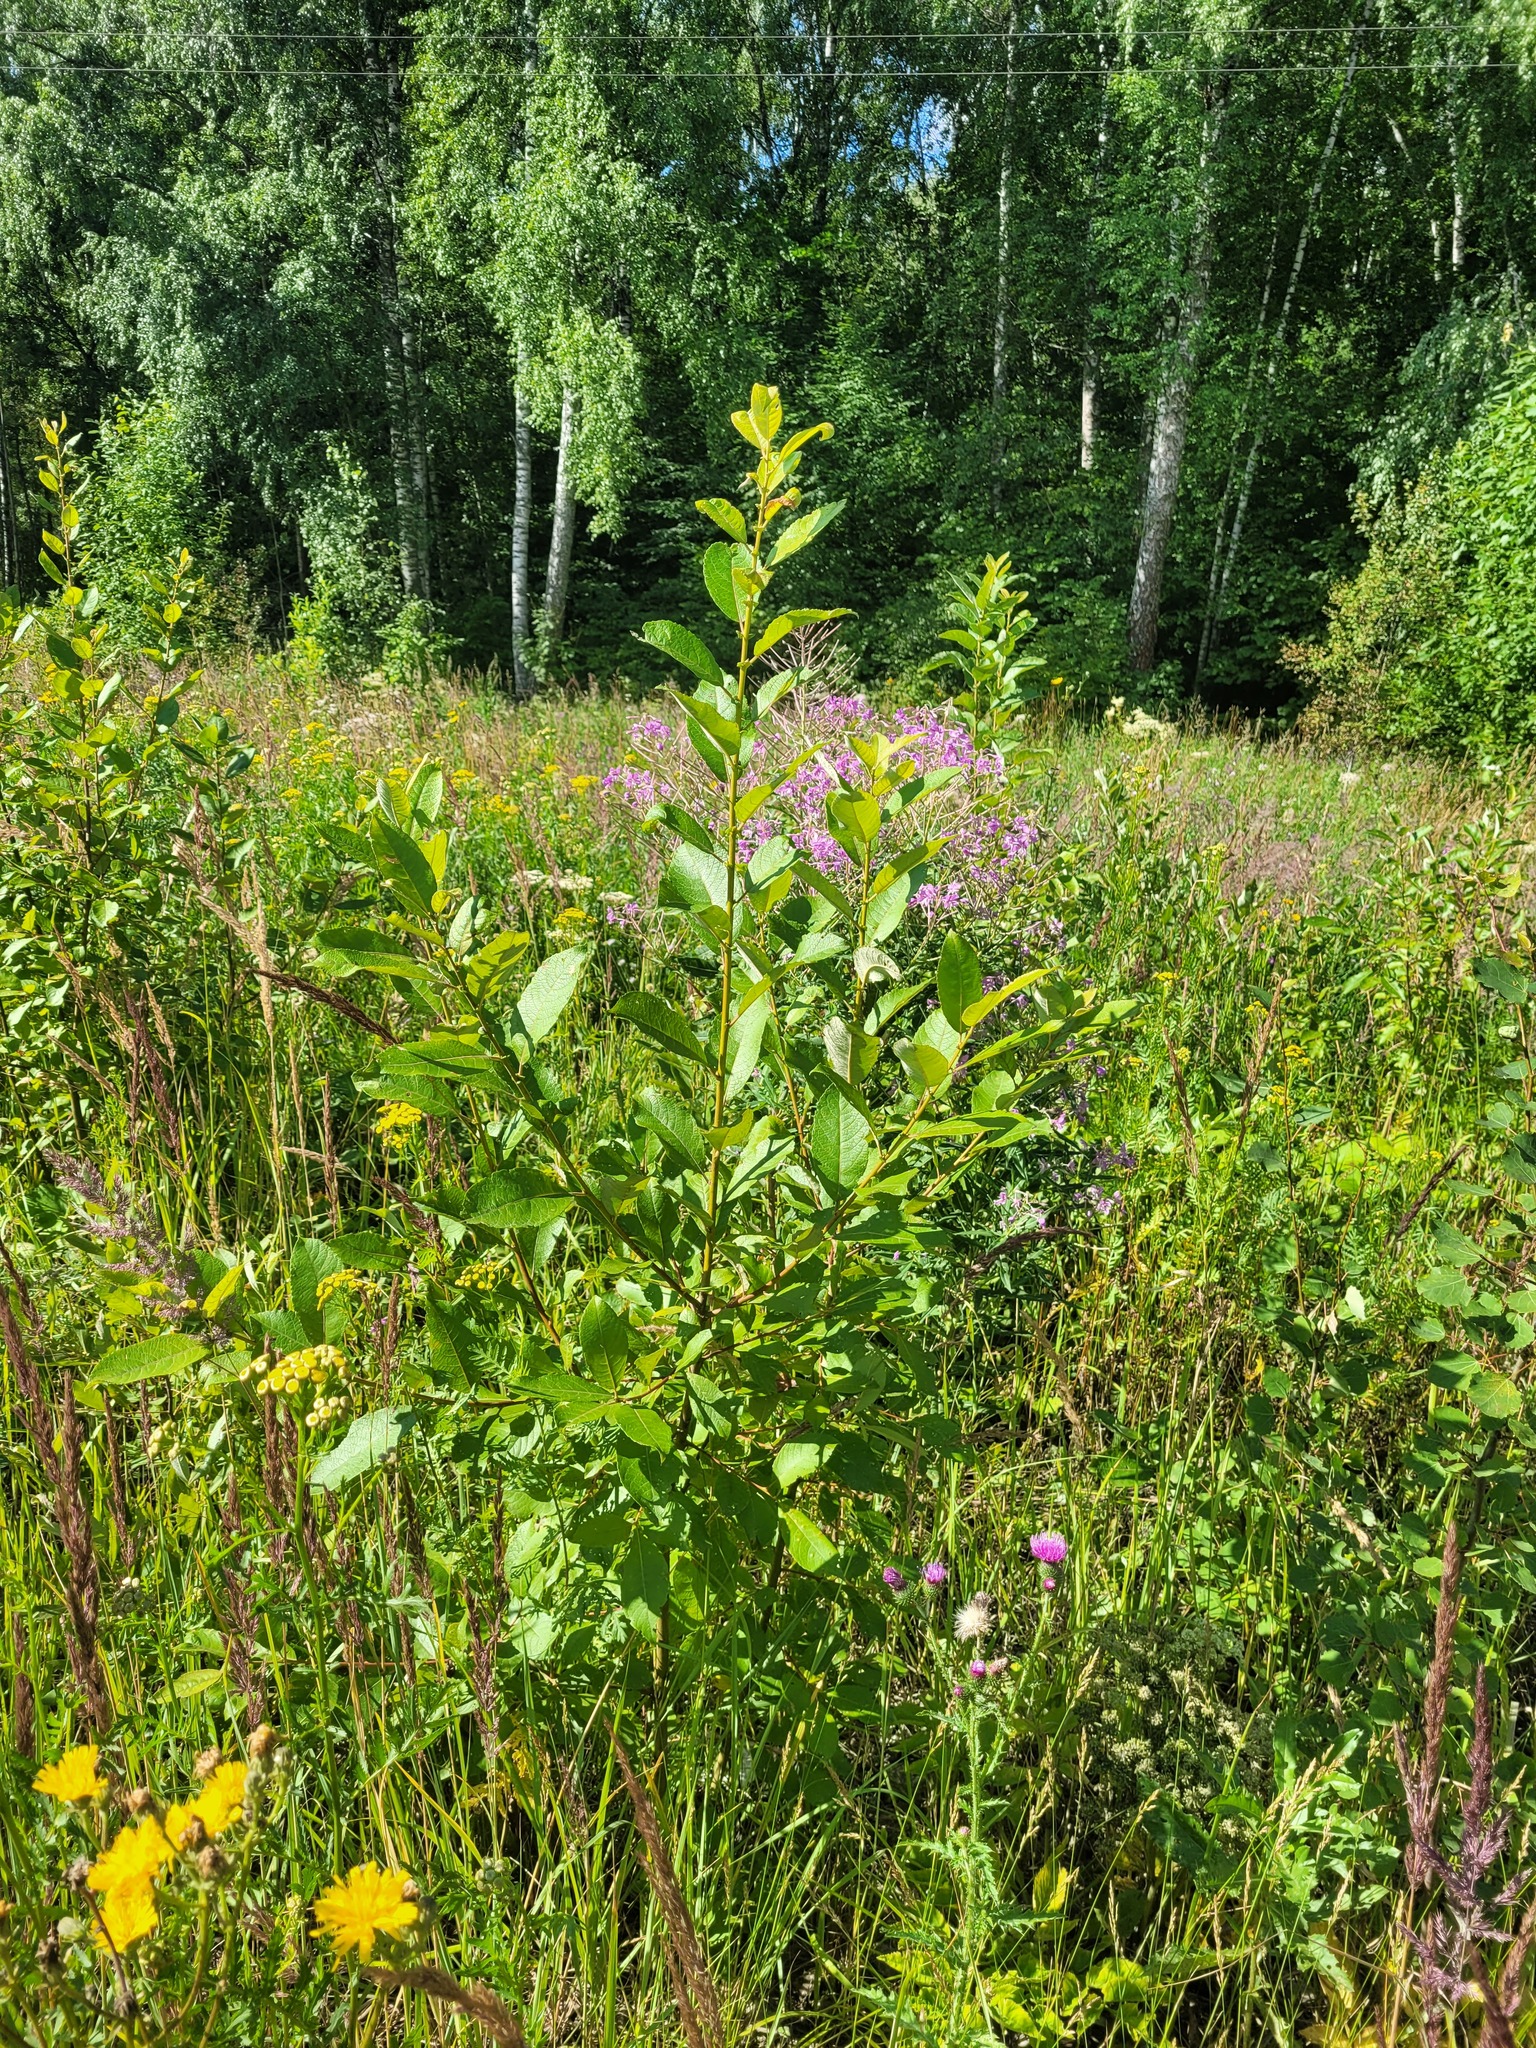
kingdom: Plantae
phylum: Tracheophyta
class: Magnoliopsida
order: Malpighiales
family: Salicaceae
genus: Salix
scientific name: Salix caprea
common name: Goat willow
